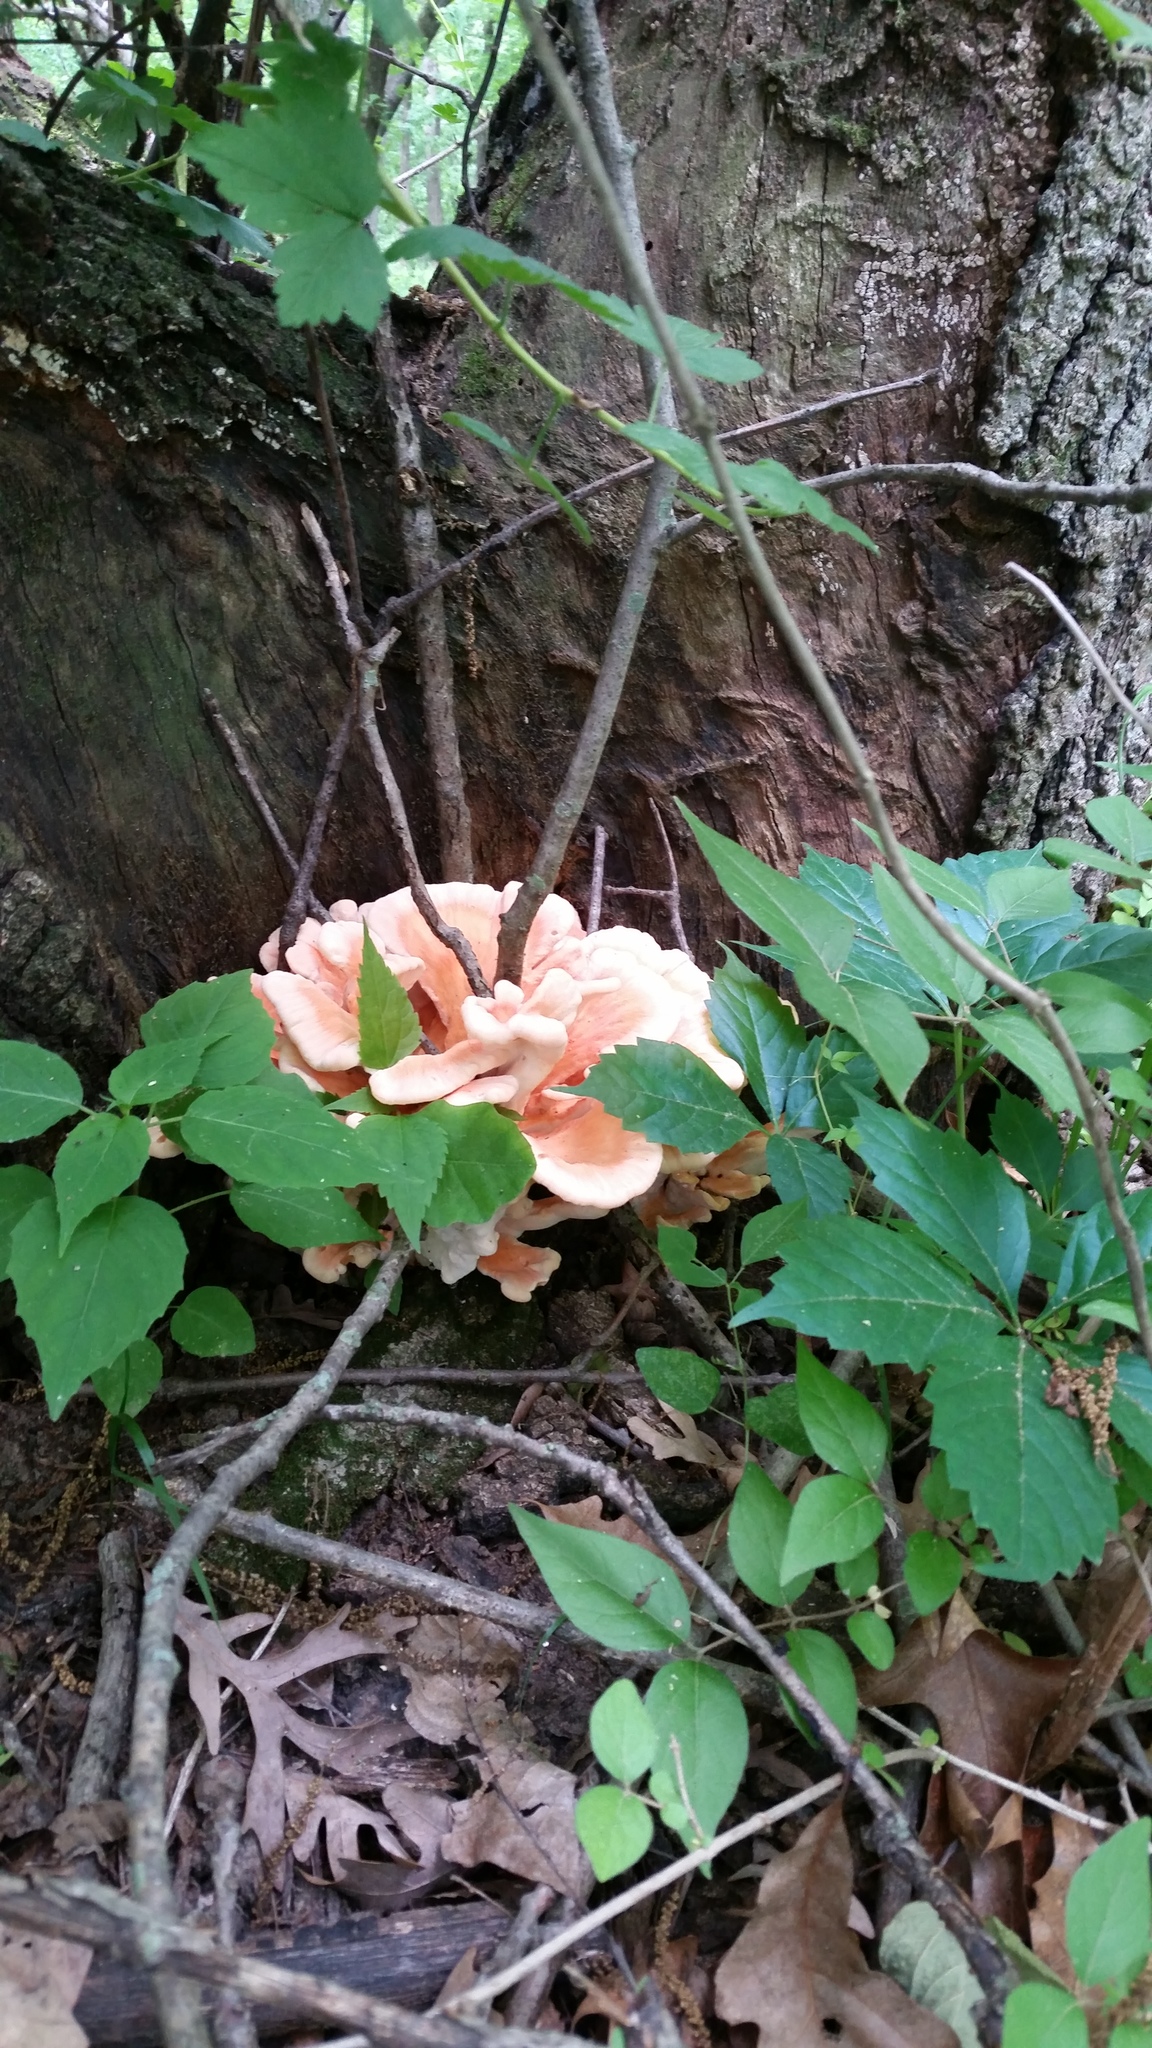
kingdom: Fungi
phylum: Basidiomycota
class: Agaricomycetes
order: Polyporales
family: Laetiporaceae
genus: Laetiporus
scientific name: Laetiporus sulphureus
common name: Chicken of the woods
